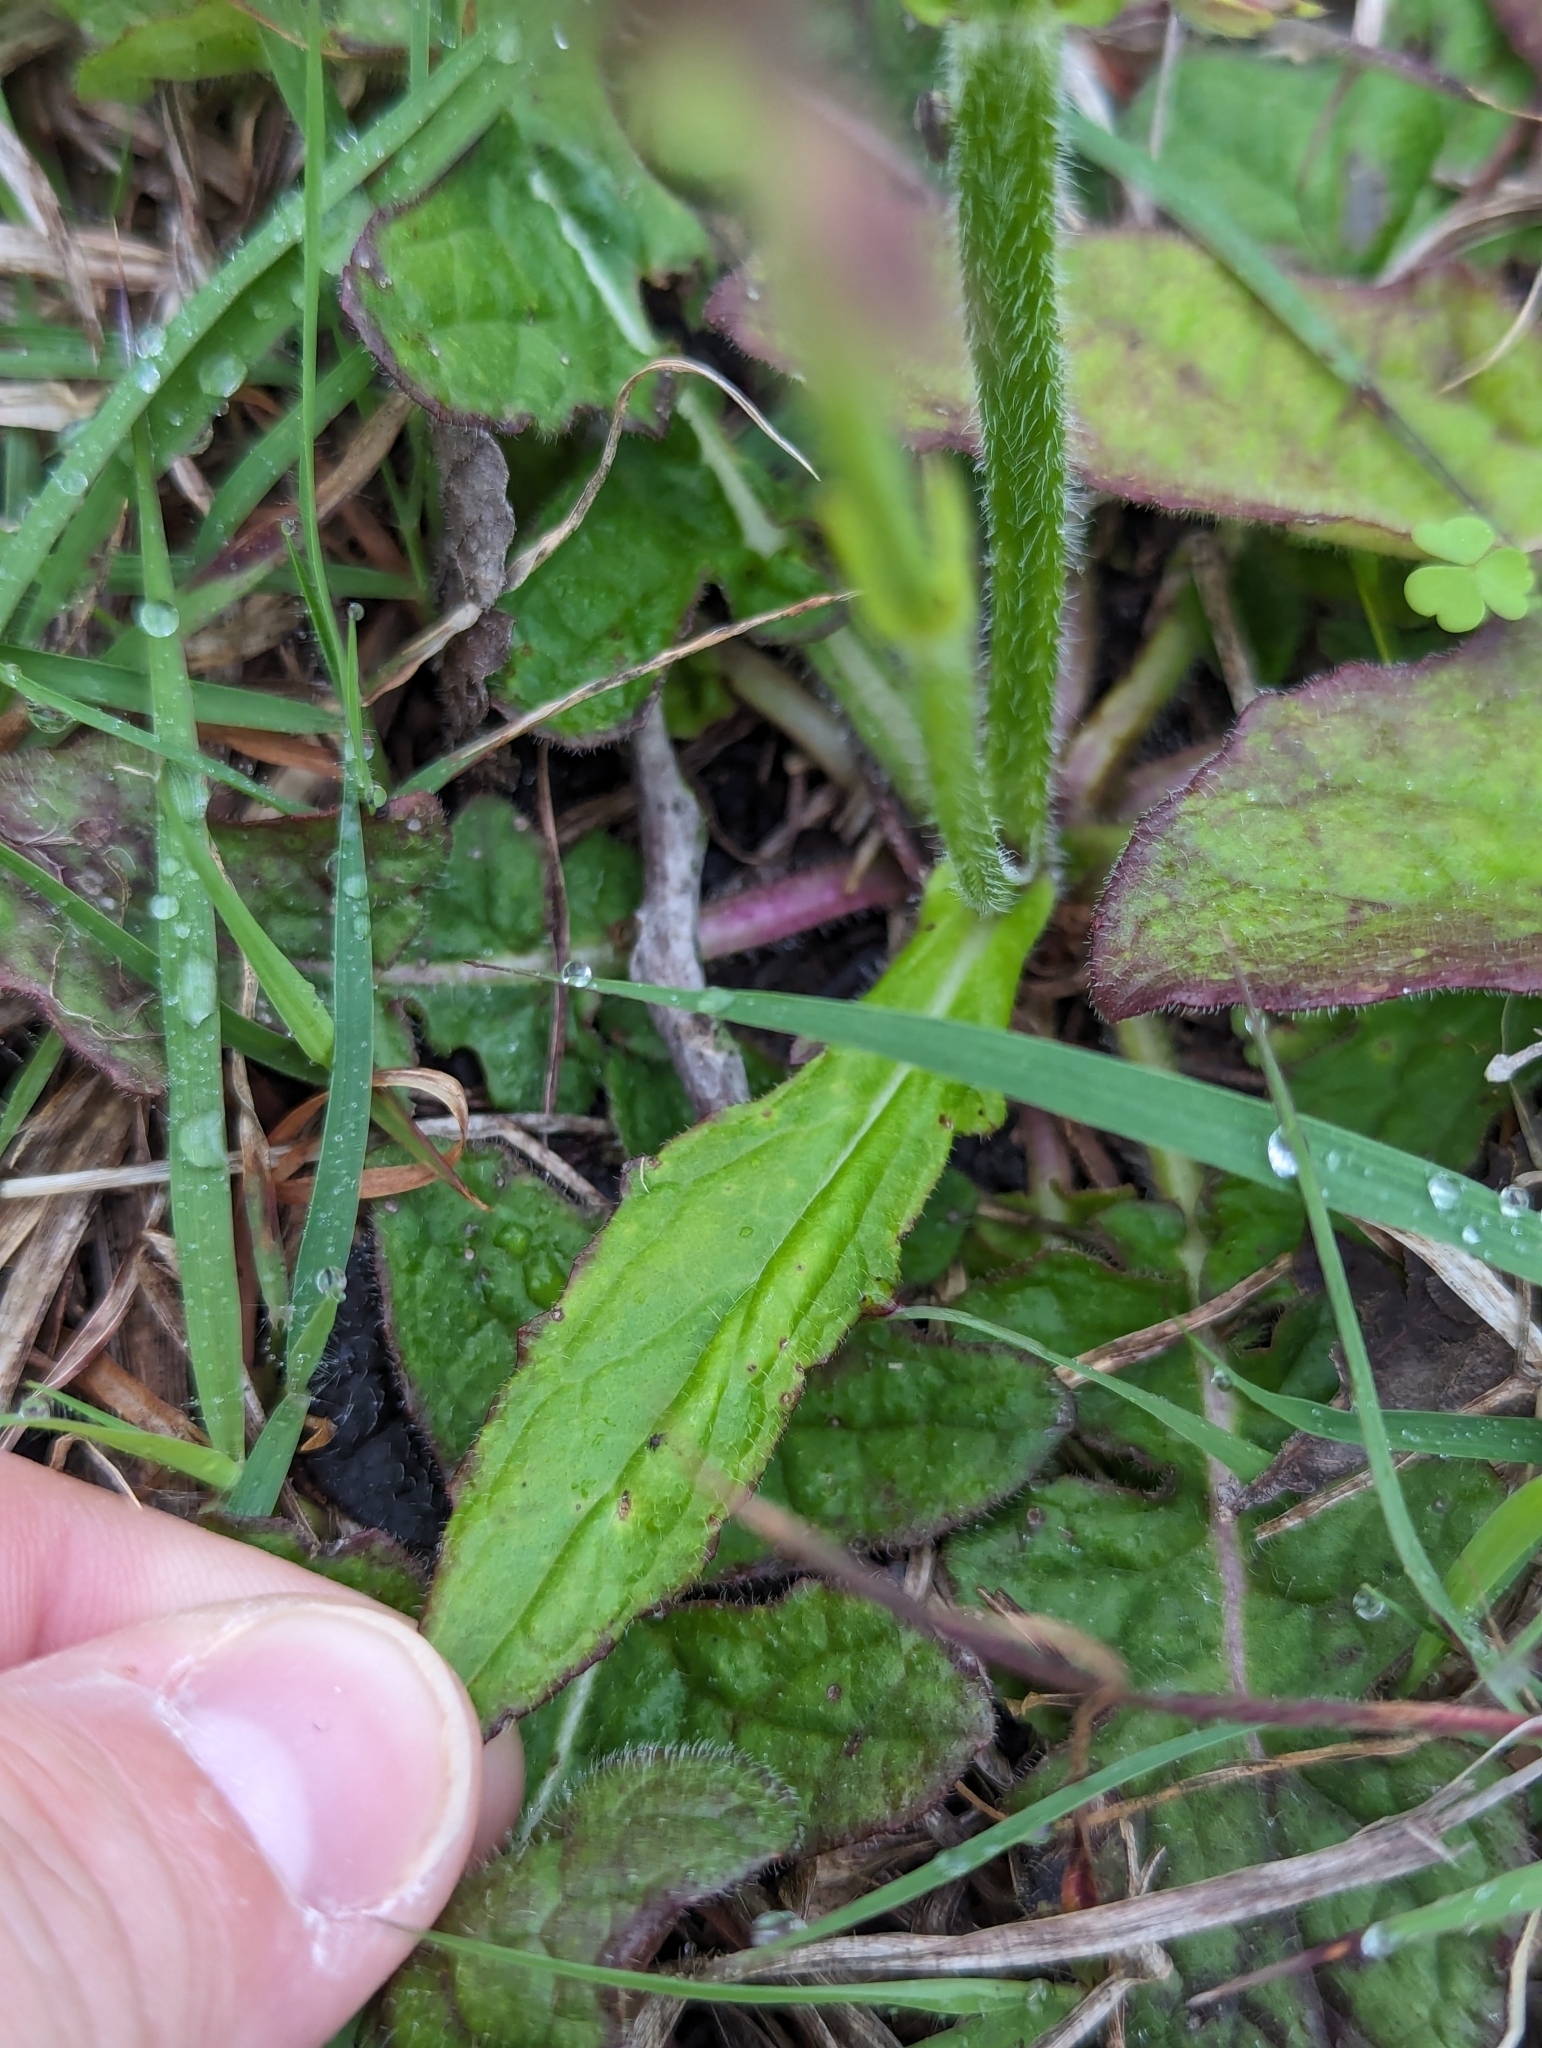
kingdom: Plantae
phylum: Tracheophyta
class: Magnoliopsida
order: Lamiales
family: Lamiaceae
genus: Salvia
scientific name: Salvia lyrata
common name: Cancerweed
